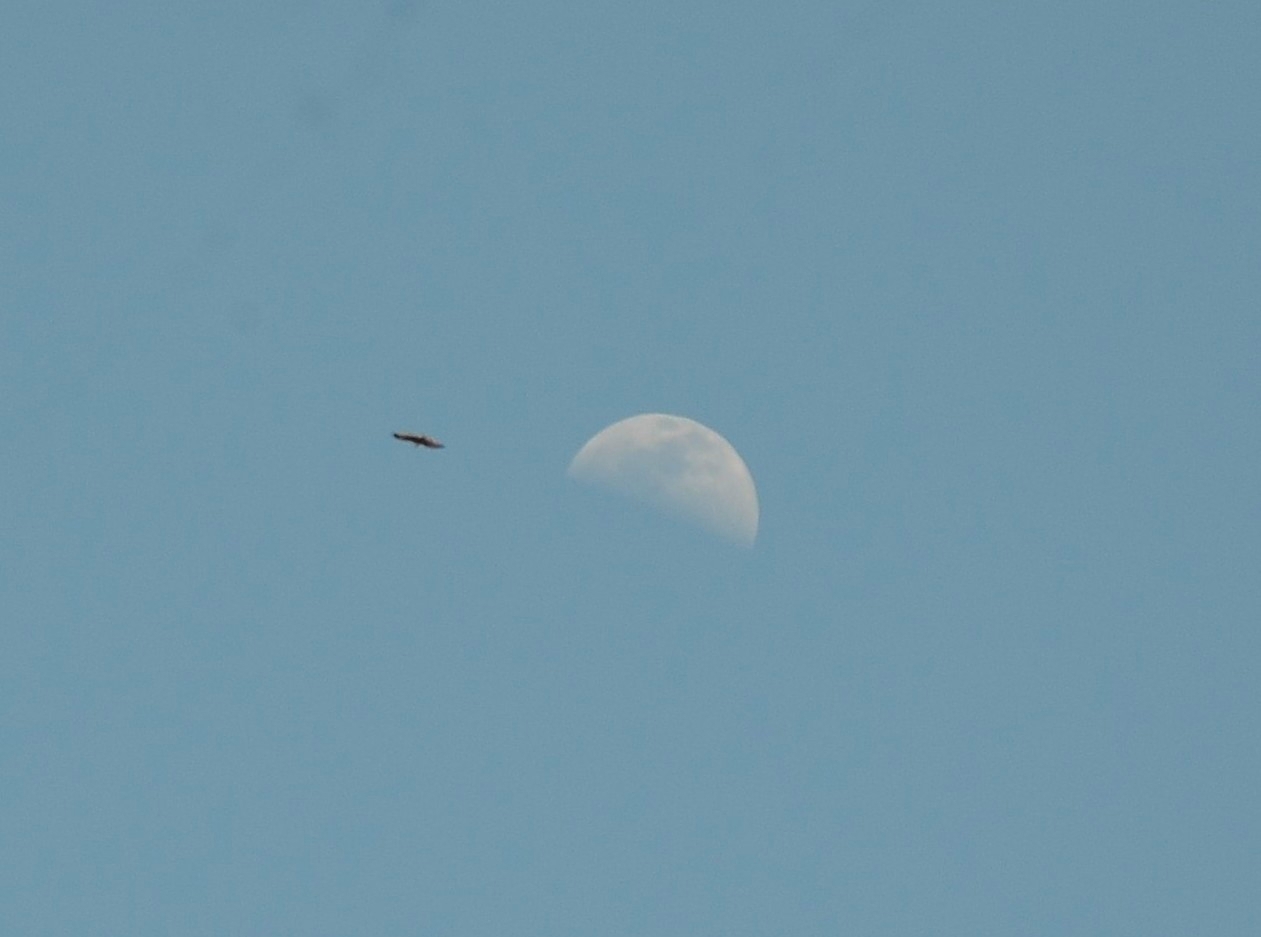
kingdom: Animalia
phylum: Chordata
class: Aves
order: Accipitriformes
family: Accipitridae
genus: Haliastur
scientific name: Haliastur indus
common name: Brahminy kite
